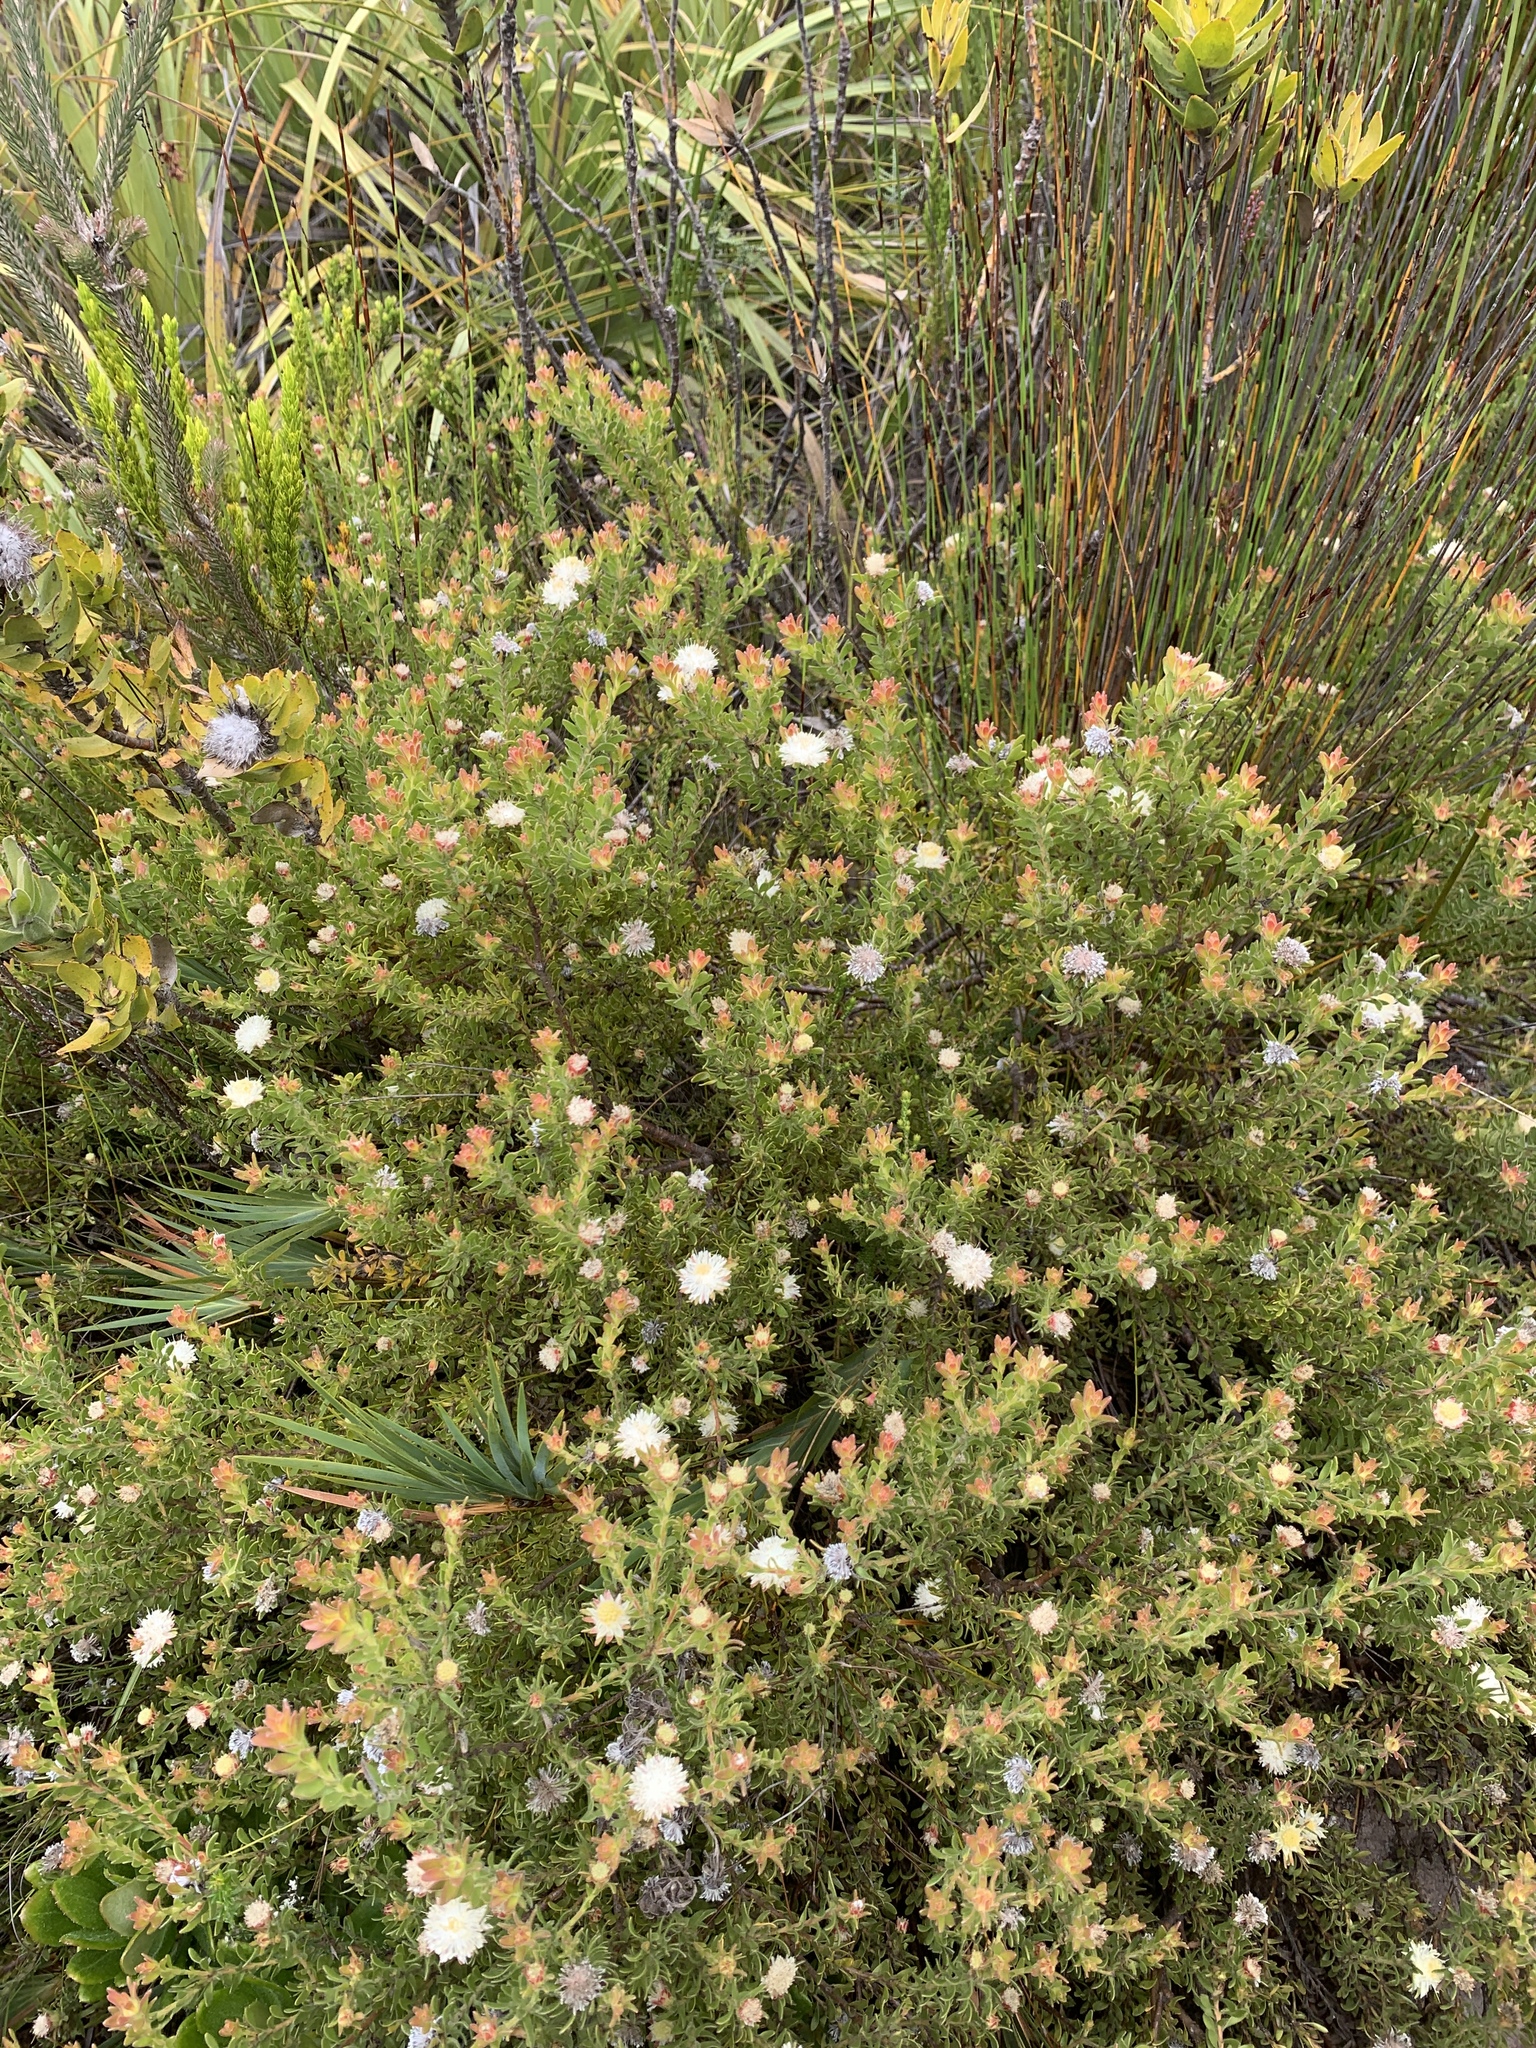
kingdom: Plantae
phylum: Tracheophyta
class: Magnoliopsida
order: Proteales
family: Proteaceae
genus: Diastella
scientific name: Diastella fraterna
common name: Palmiet silkypuff
